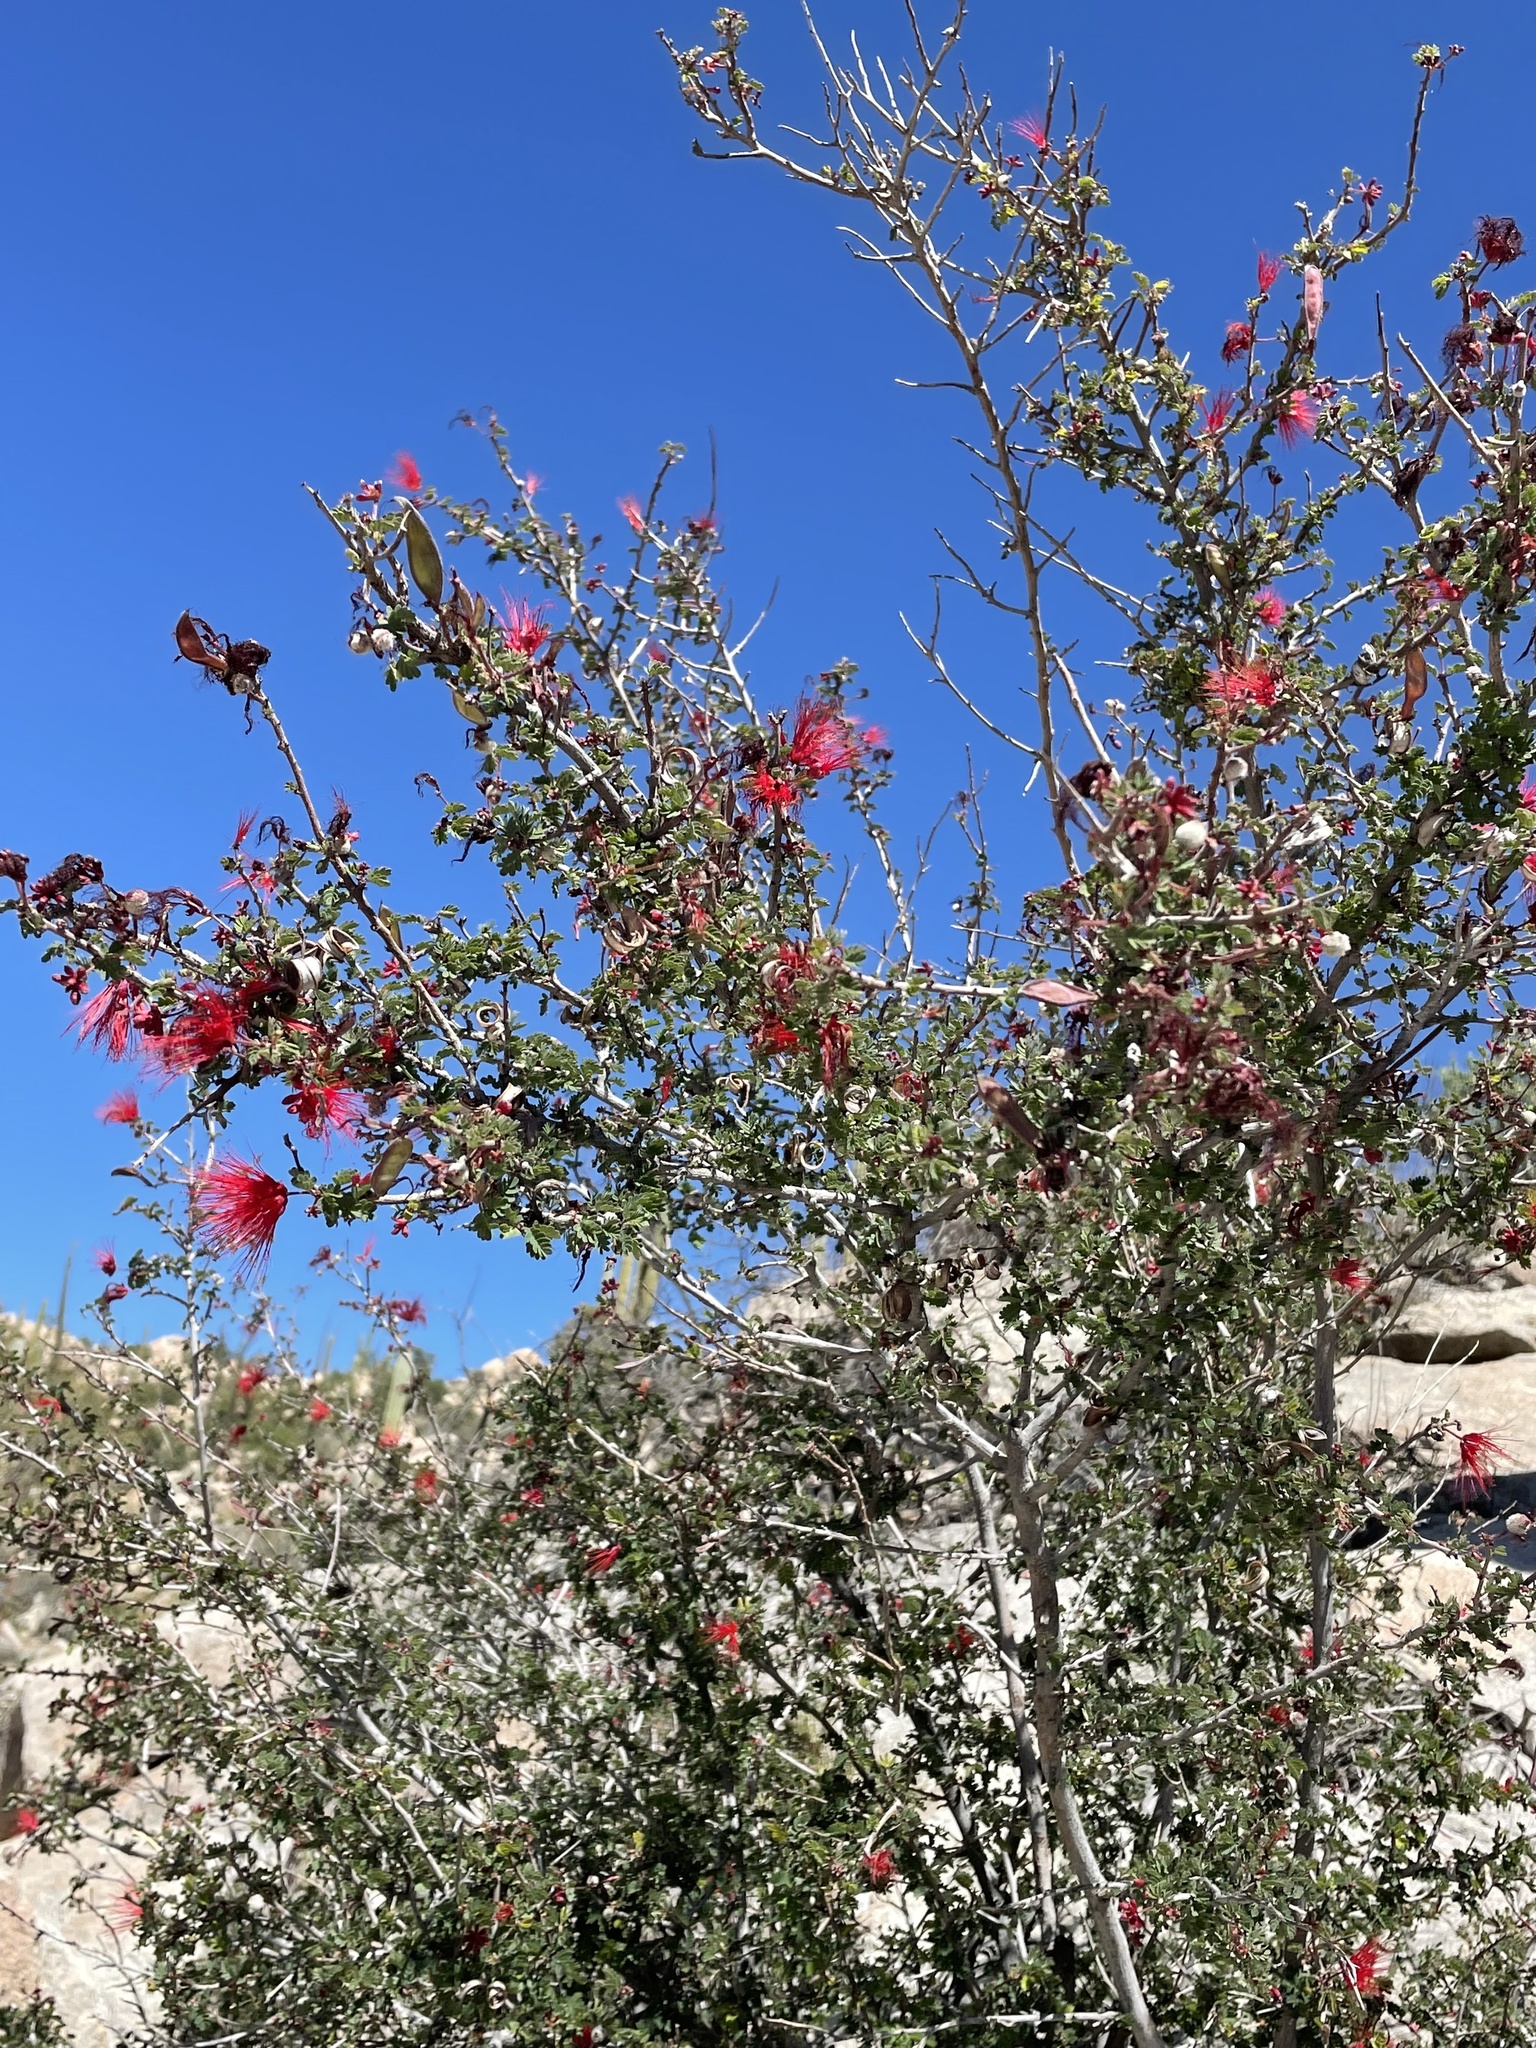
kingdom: Plantae
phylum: Tracheophyta
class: Magnoliopsida
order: Fabales
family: Fabaceae
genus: Calliandra
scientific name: Calliandra californica
